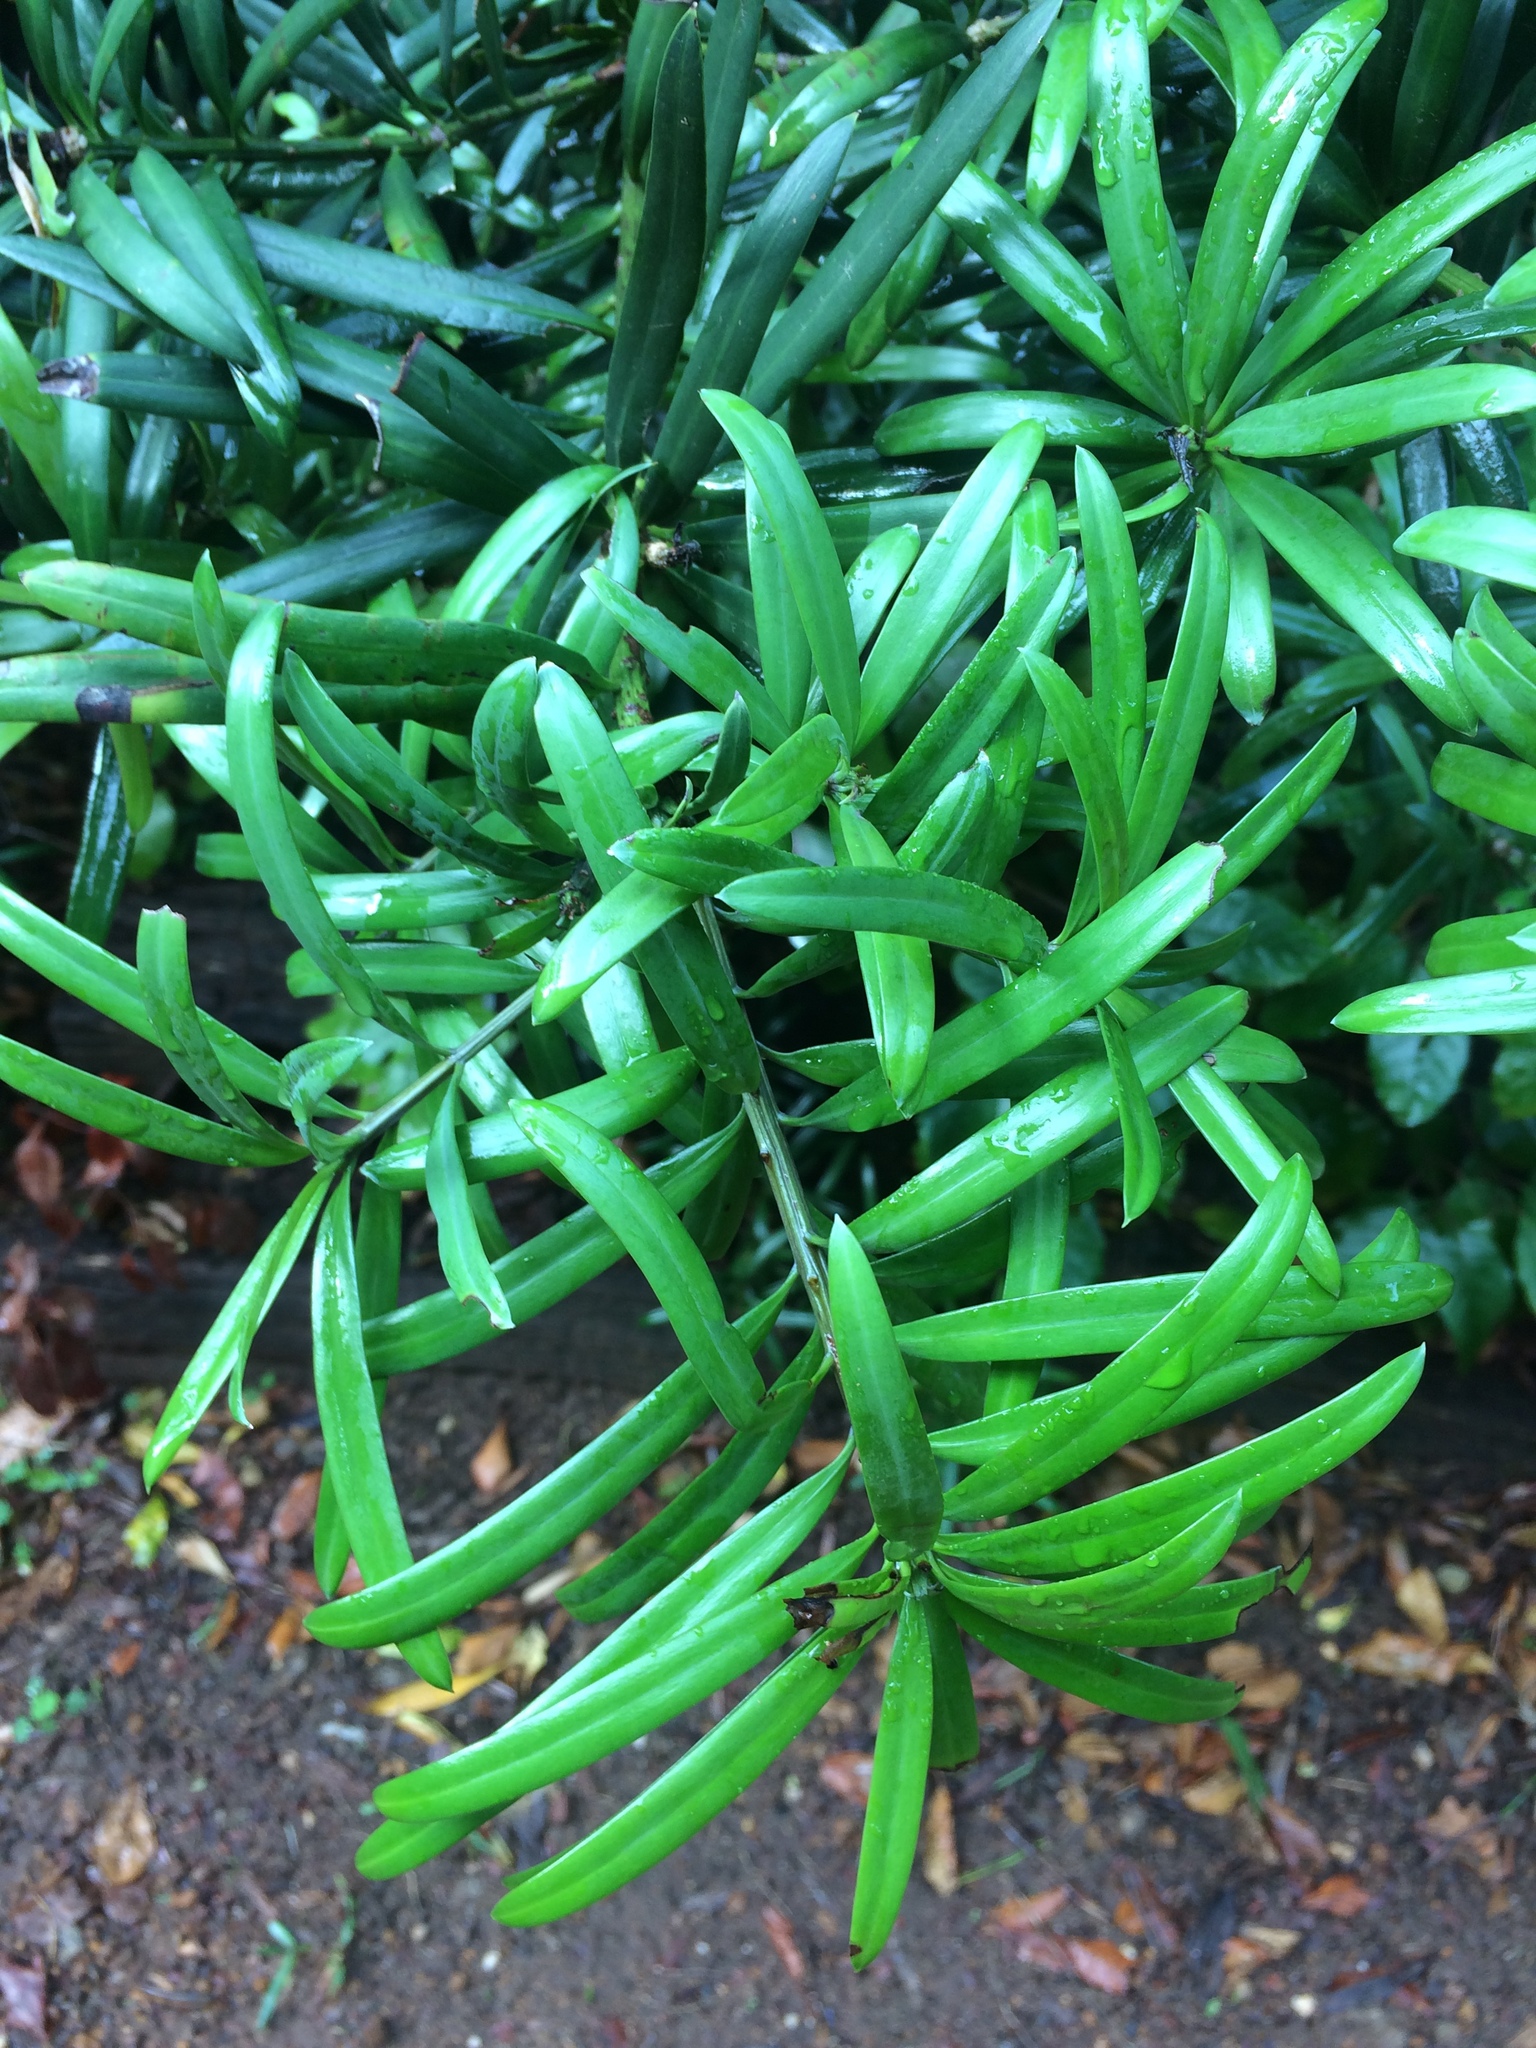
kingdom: Plantae
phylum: Tracheophyta
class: Pinopsida
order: Pinales
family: Podocarpaceae
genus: Podocarpus
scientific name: Podocarpus latifolius
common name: True yellowwood
